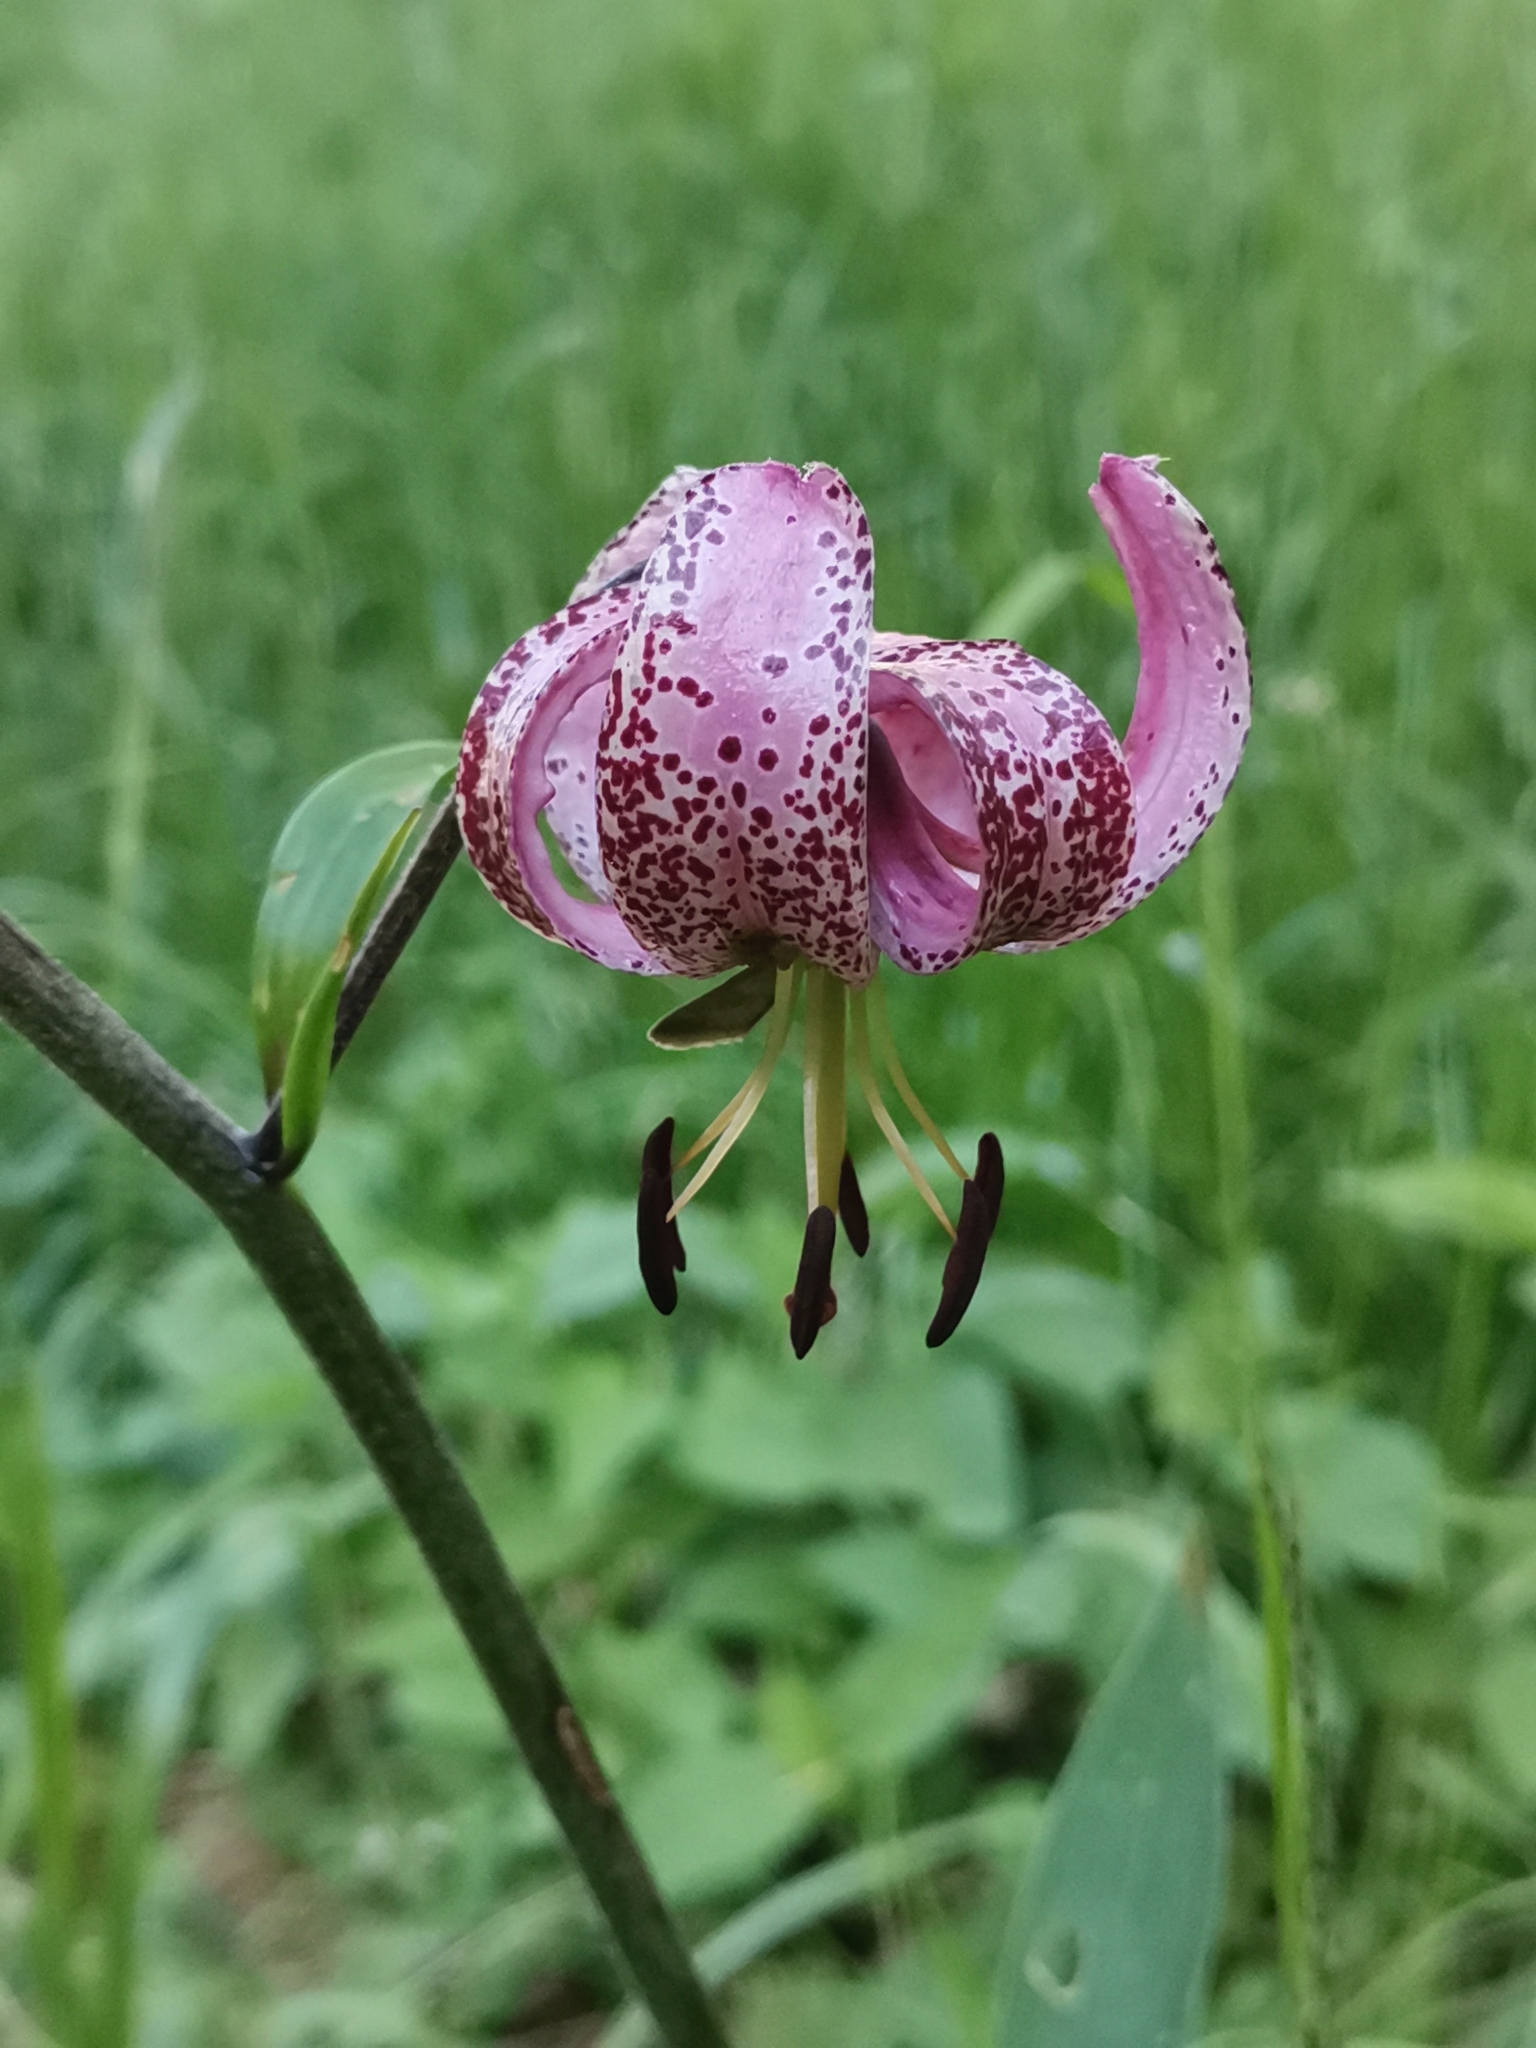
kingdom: Plantae
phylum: Tracheophyta
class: Liliopsida
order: Liliales
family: Liliaceae
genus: Lilium
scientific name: Lilium martagon
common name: Martagon lily
